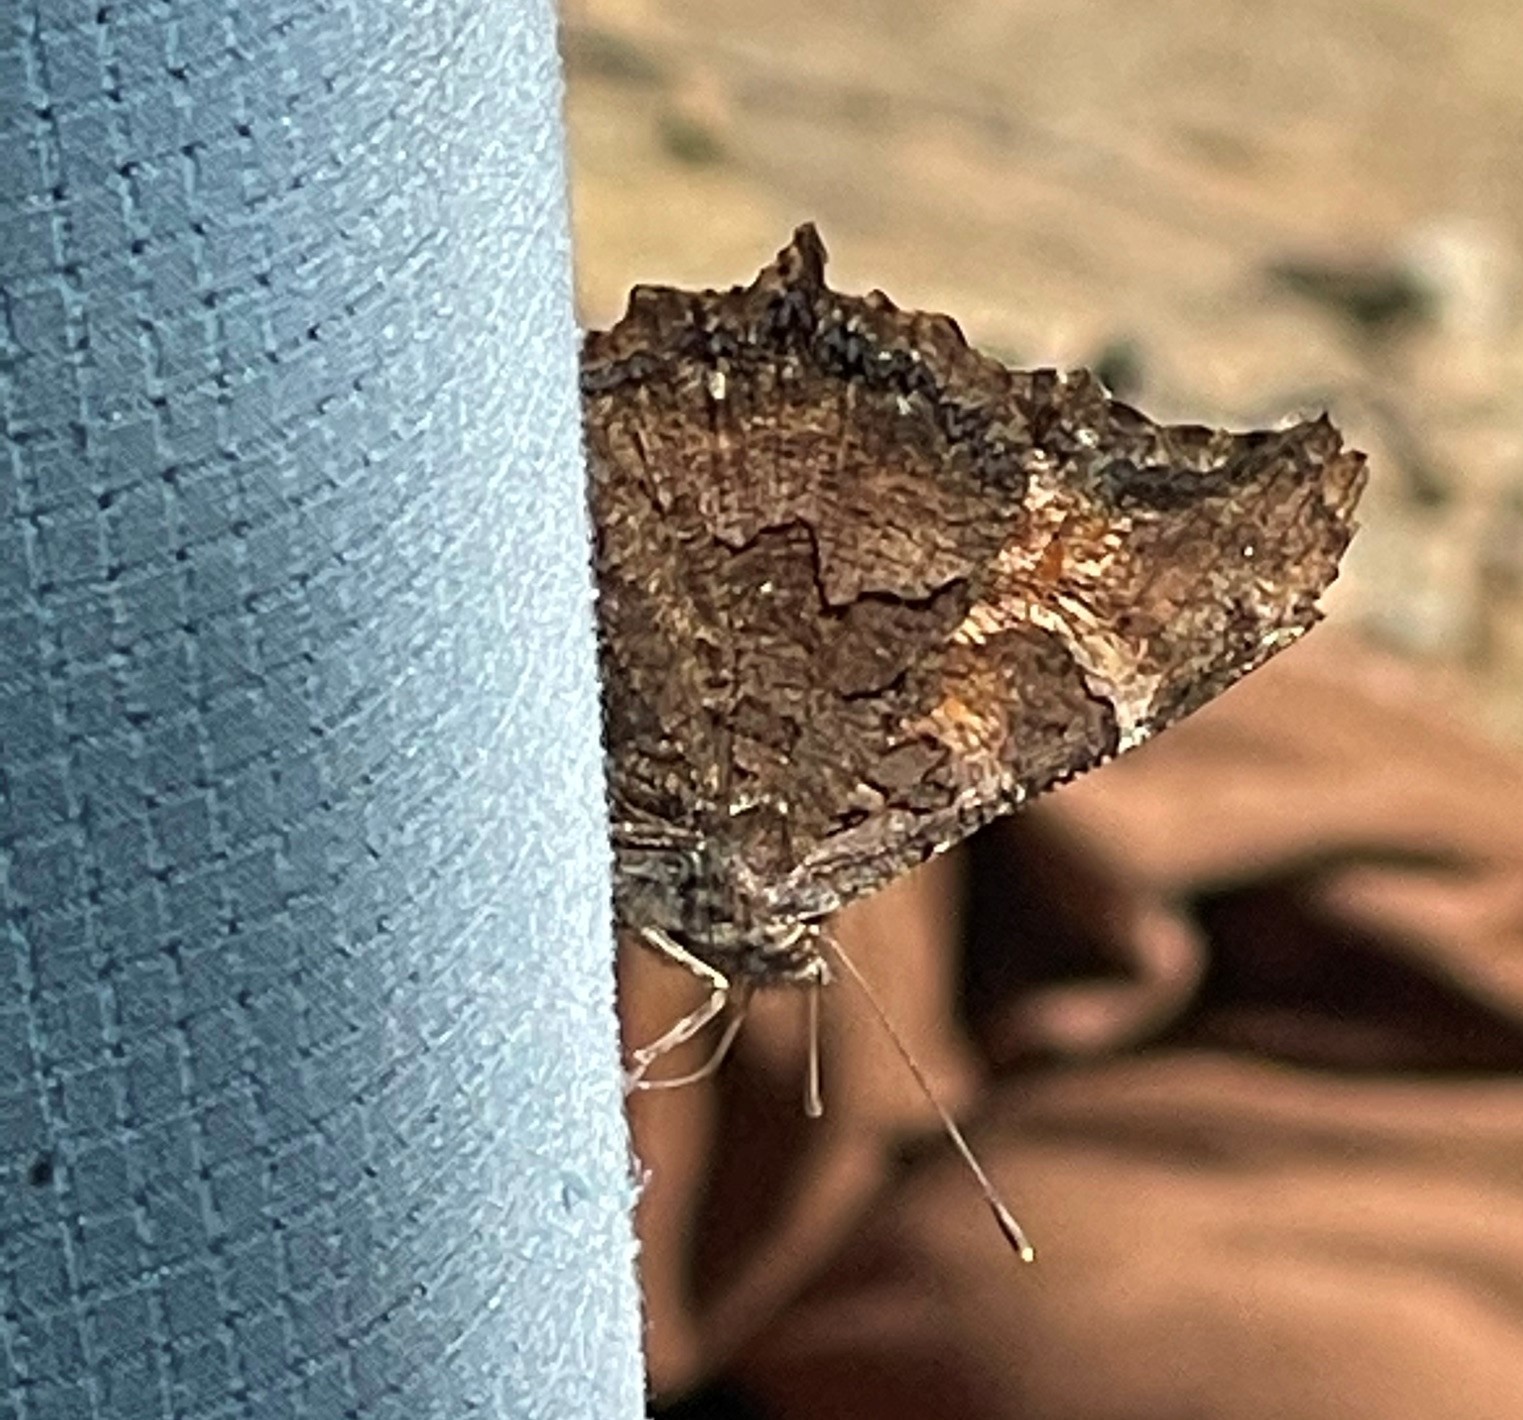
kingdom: Animalia
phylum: Arthropoda
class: Insecta
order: Lepidoptera
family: Nymphalidae
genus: Nymphalis
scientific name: Nymphalis californica
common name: California tortoiseshell
